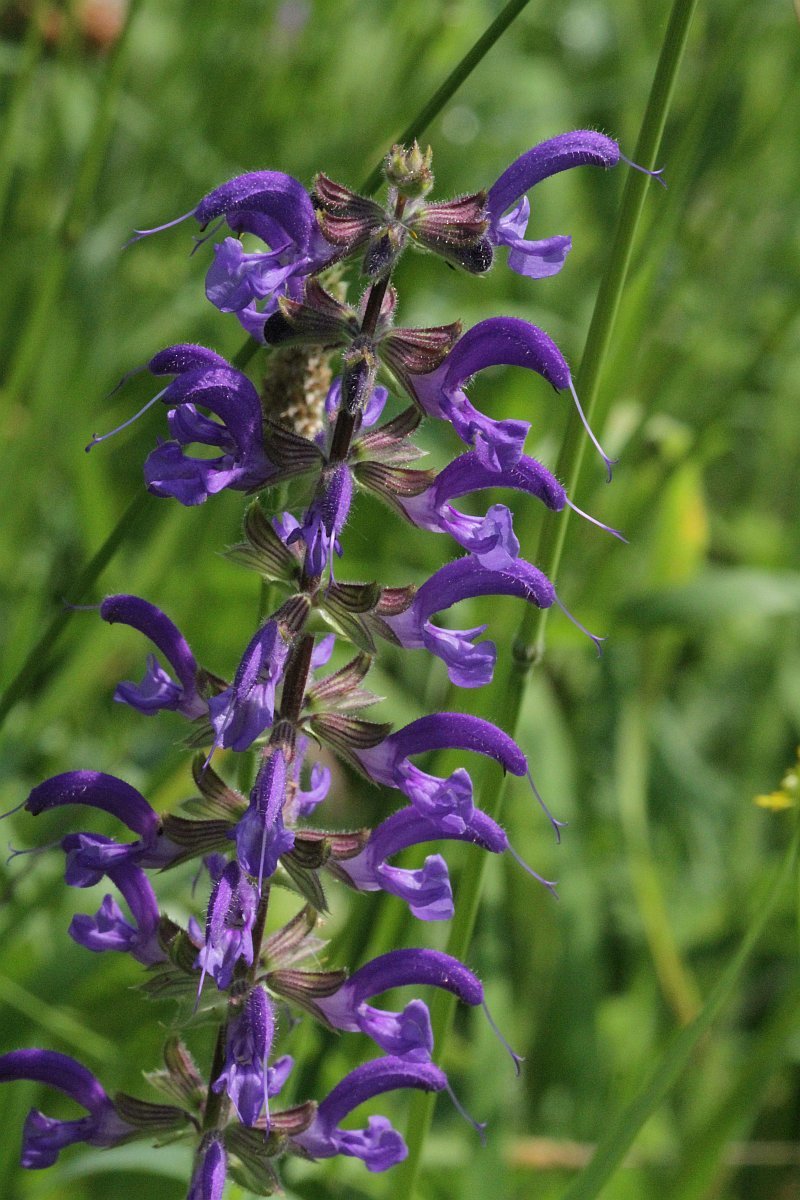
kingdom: Plantae
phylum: Tracheophyta
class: Magnoliopsida
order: Lamiales
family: Lamiaceae
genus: Salvia
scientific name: Salvia pratensis
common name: Meadow sage
